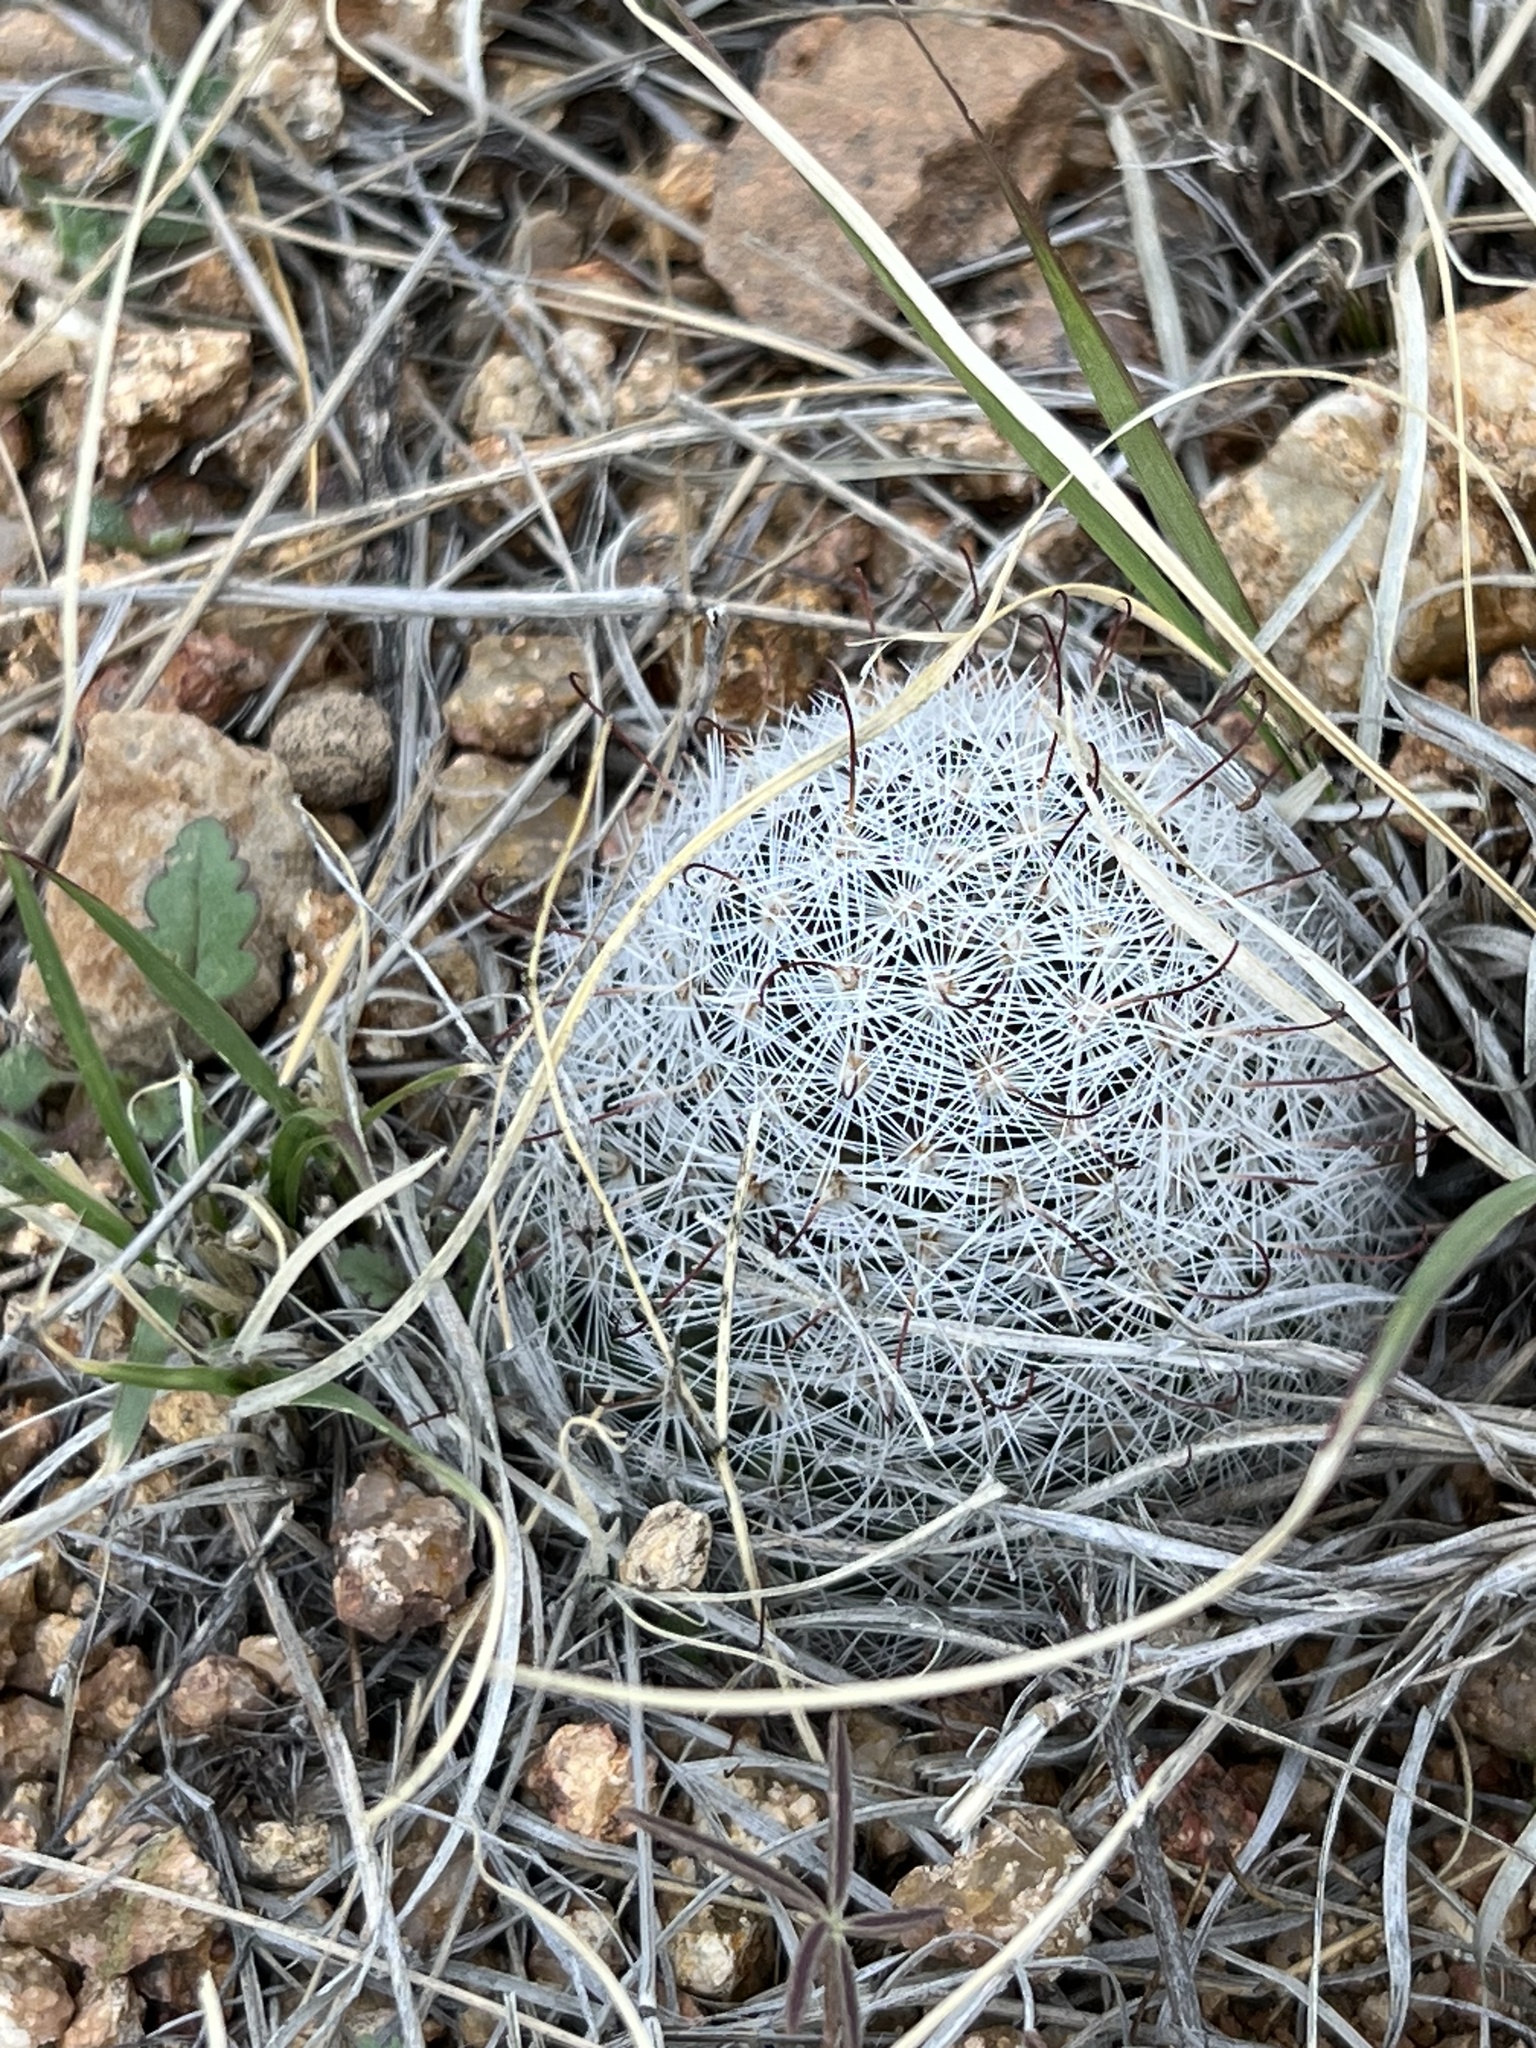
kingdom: Plantae
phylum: Tracheophyta
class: Magnoliopsida
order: Caryophyllales
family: Cactaceae
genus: Cochemiea
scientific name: Cochemiea grahamii
